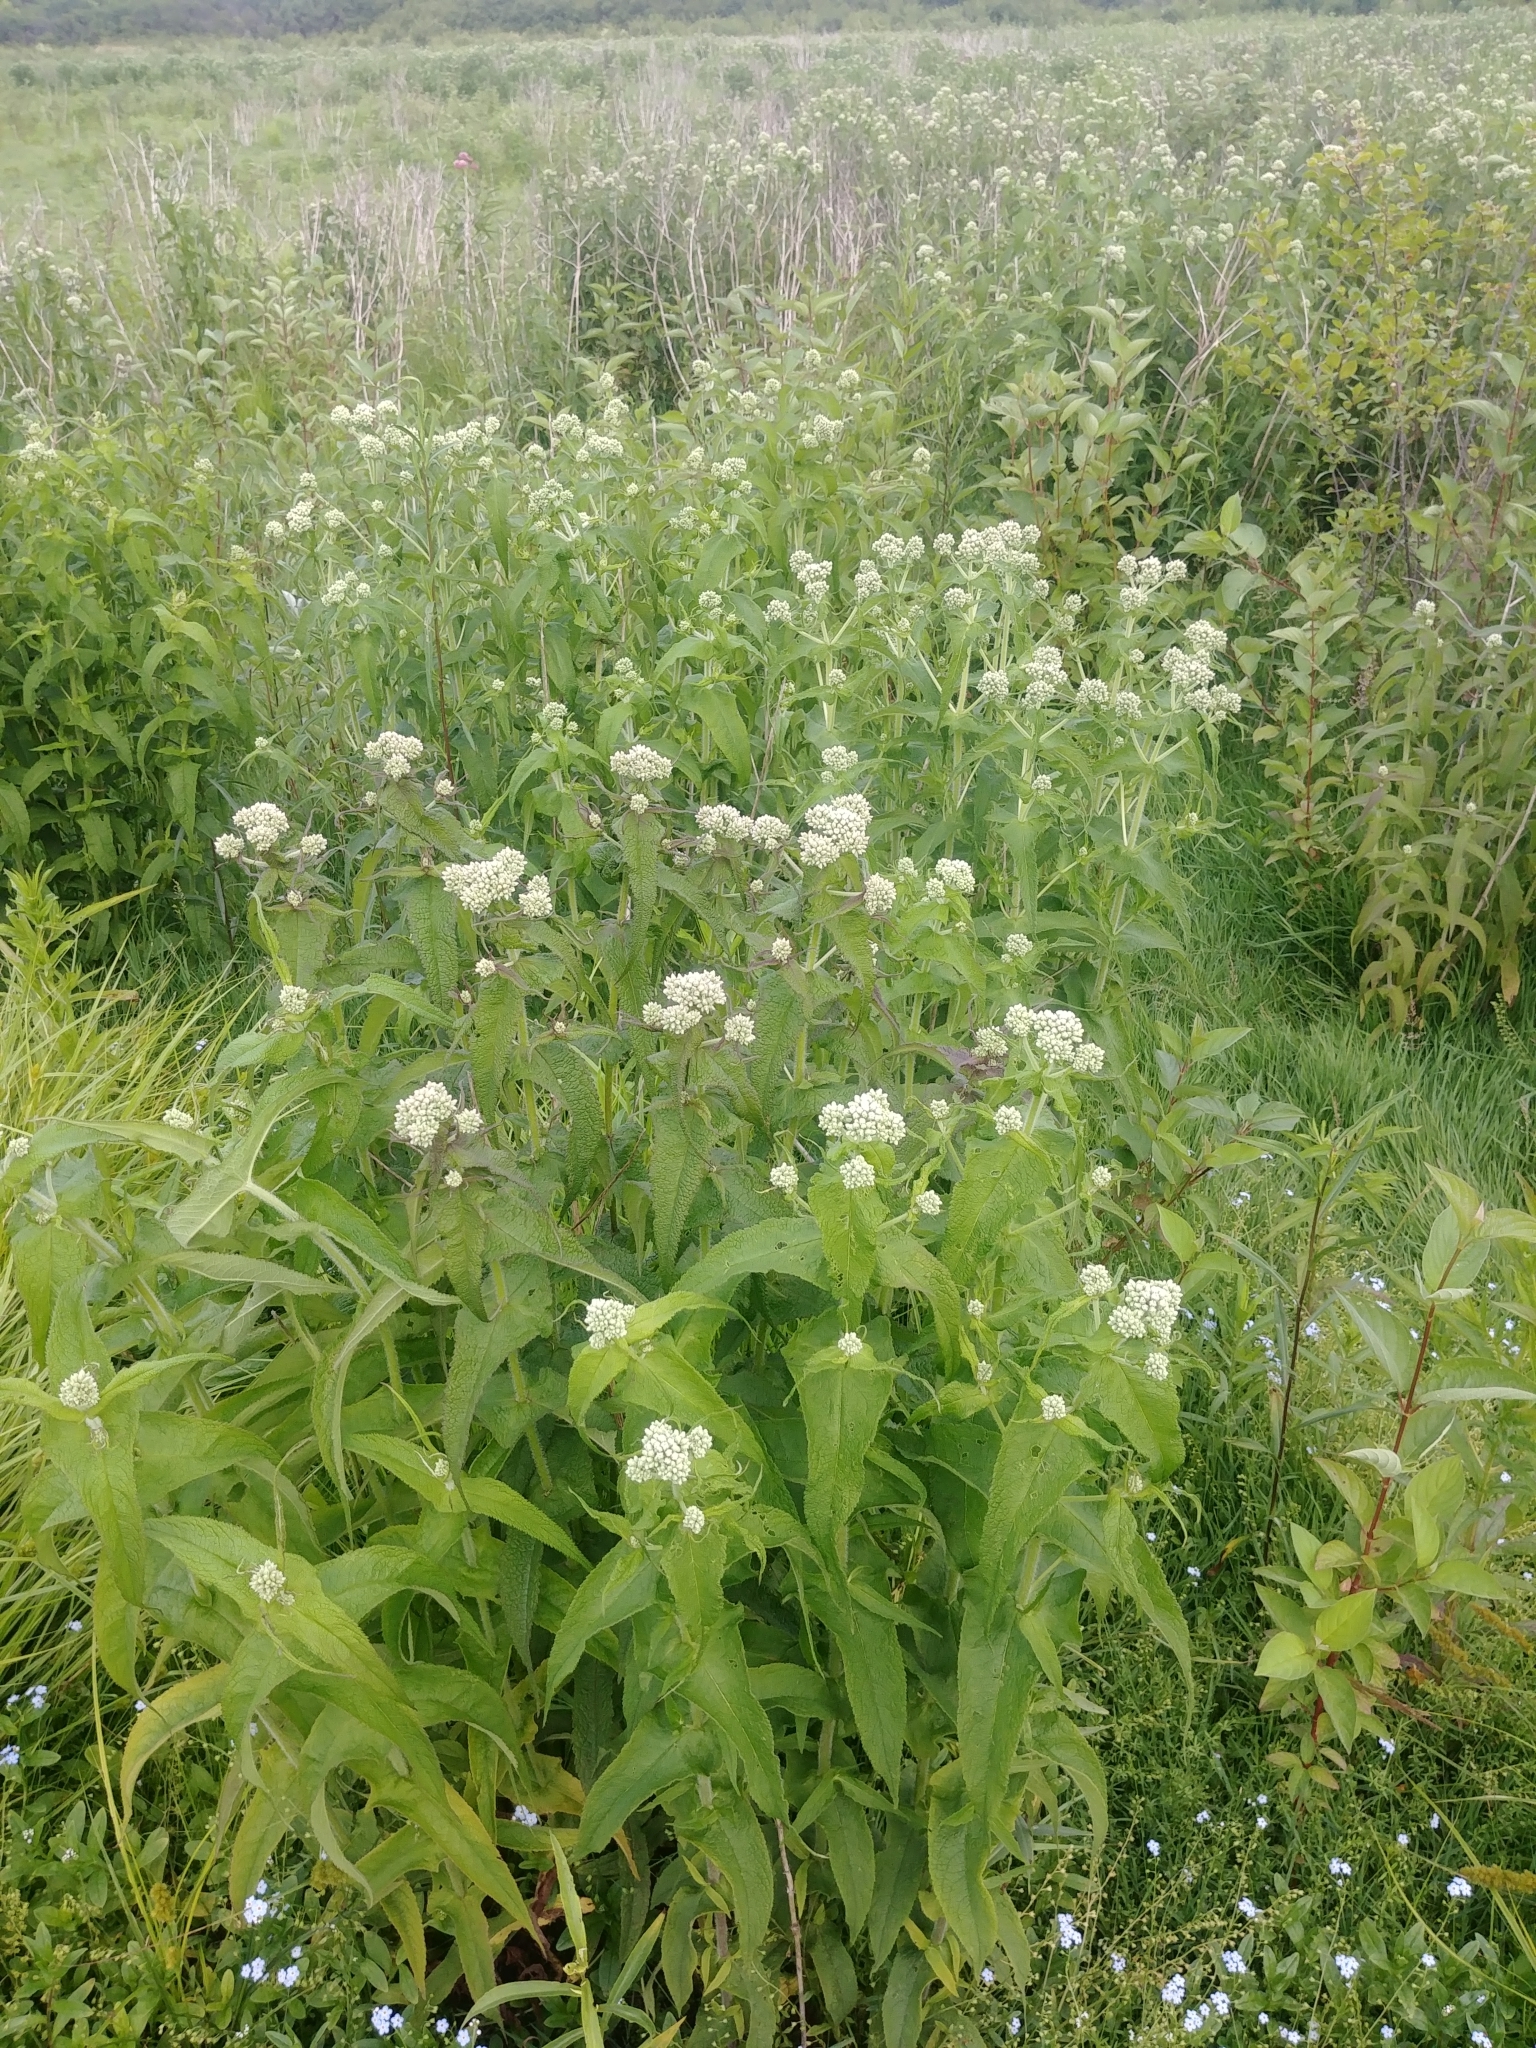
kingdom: Plantae
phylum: Tracheophyta
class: Magnoliopsida
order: Asterales
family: Asteraceae
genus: Eupatorium
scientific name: Eupatorium perfoliatum
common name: Boneset
